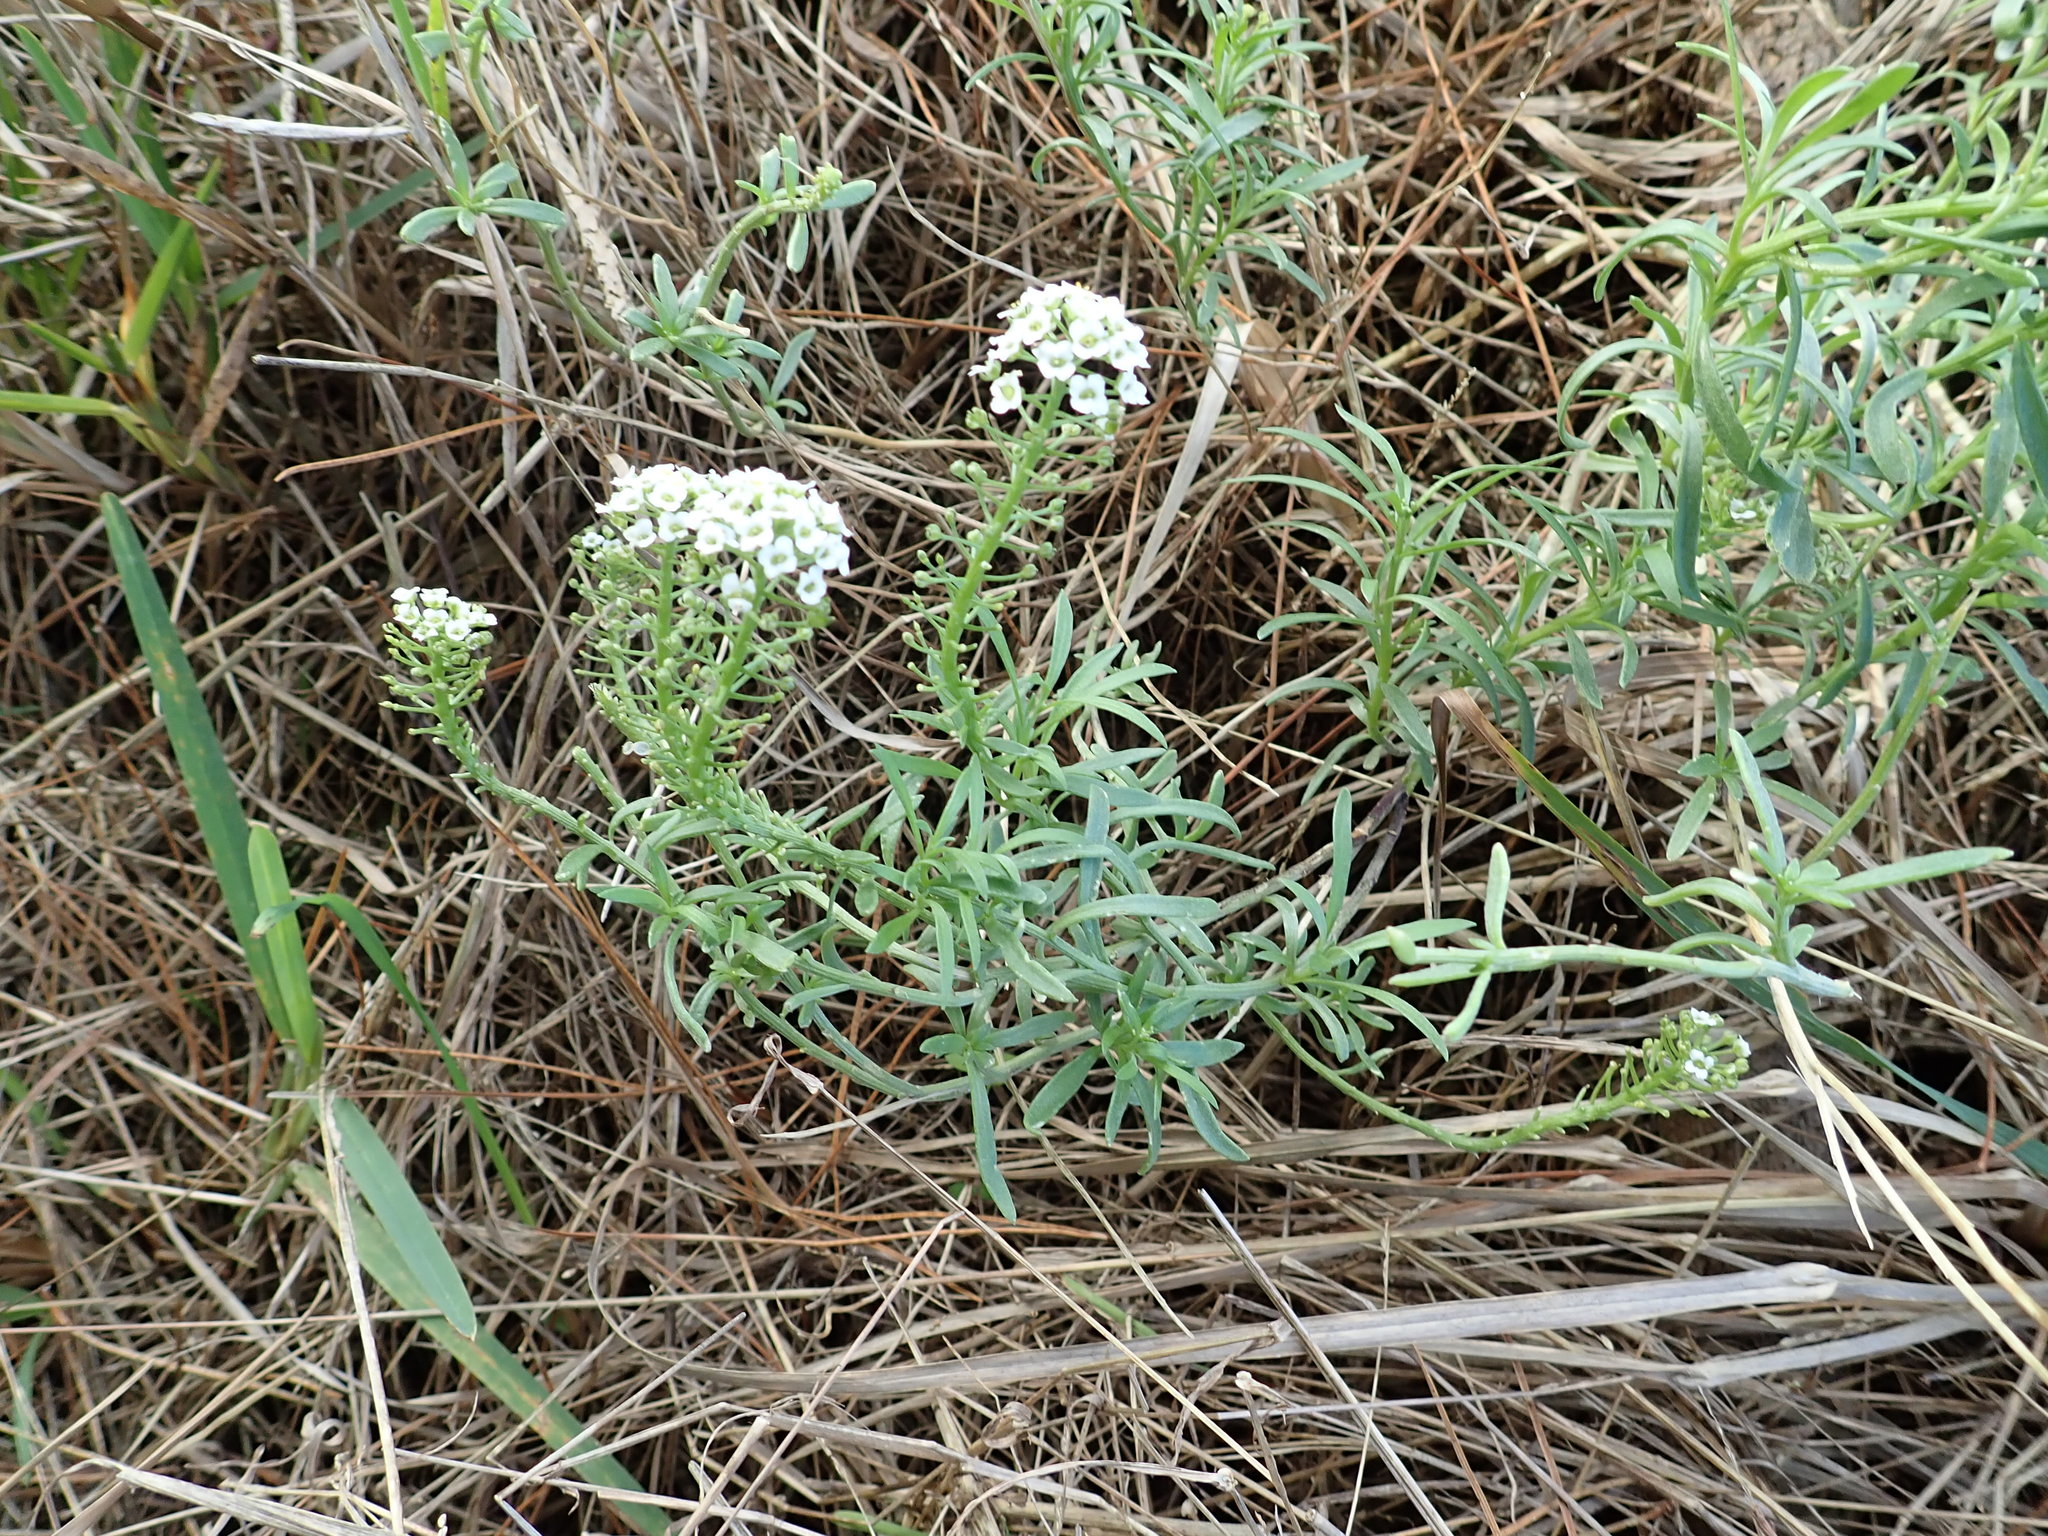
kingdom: Plantae
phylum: Tracheophyta
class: Magnoliopsida
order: Brassicales
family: Brassicaceae
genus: Lobularia
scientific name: Lobularia maritima
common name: Sweet alison
